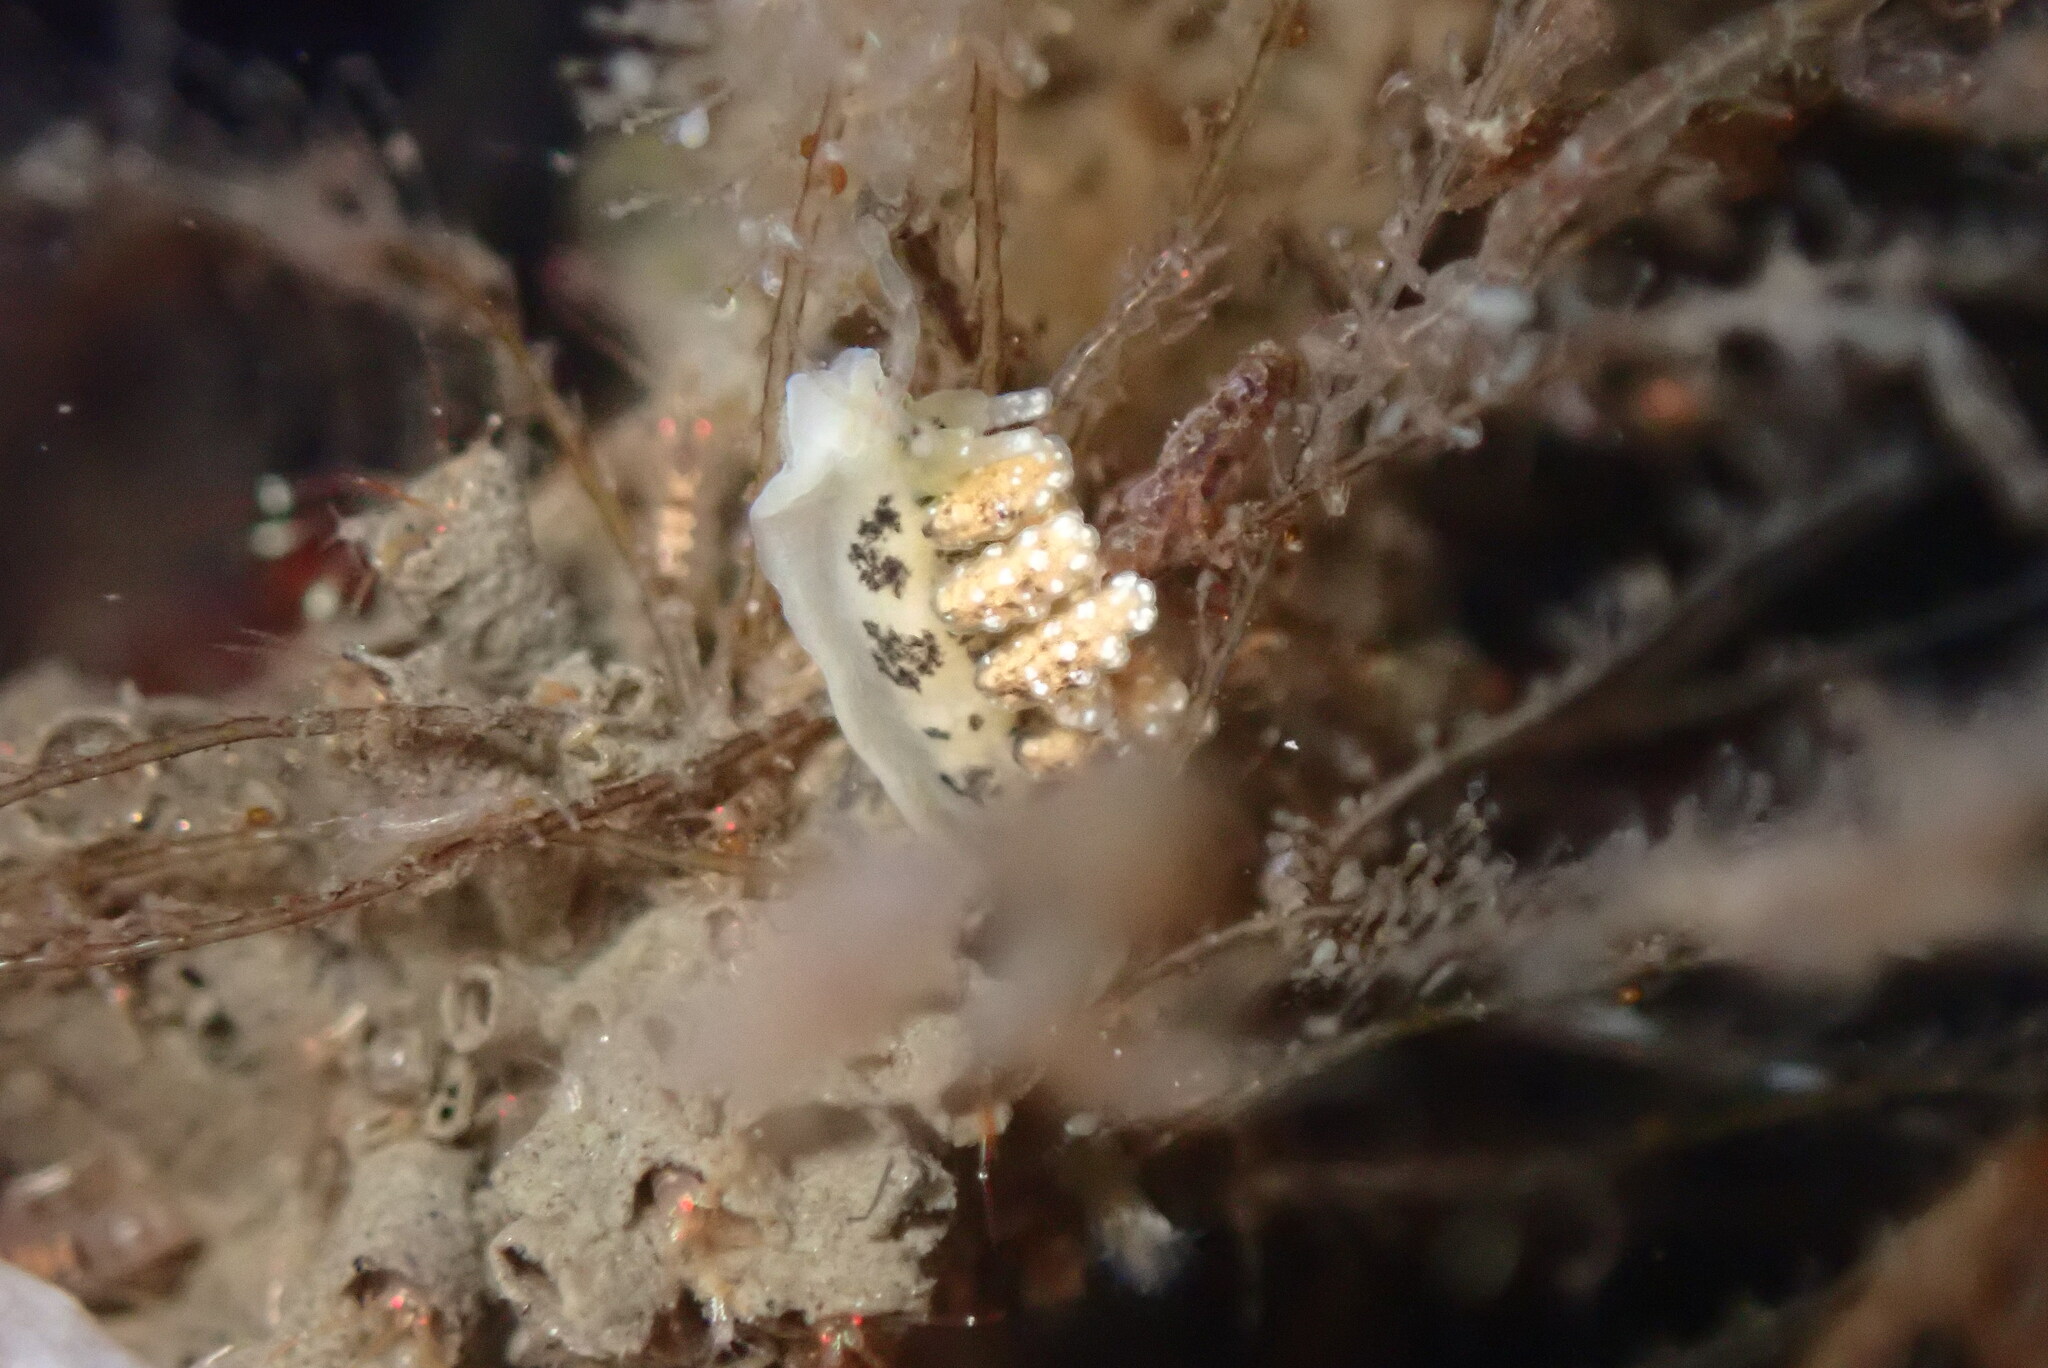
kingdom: Animalia
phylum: Mollusca
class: Gastropoda
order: Nudibranchia
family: Dotidae
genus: Doto
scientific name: Doto kya
